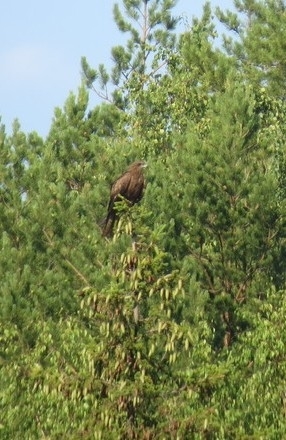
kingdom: Animalia
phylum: Chordata
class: Aves
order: Accipitriformes
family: Accipitridae
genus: Milvus
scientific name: Milvus migrans
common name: Black kite
